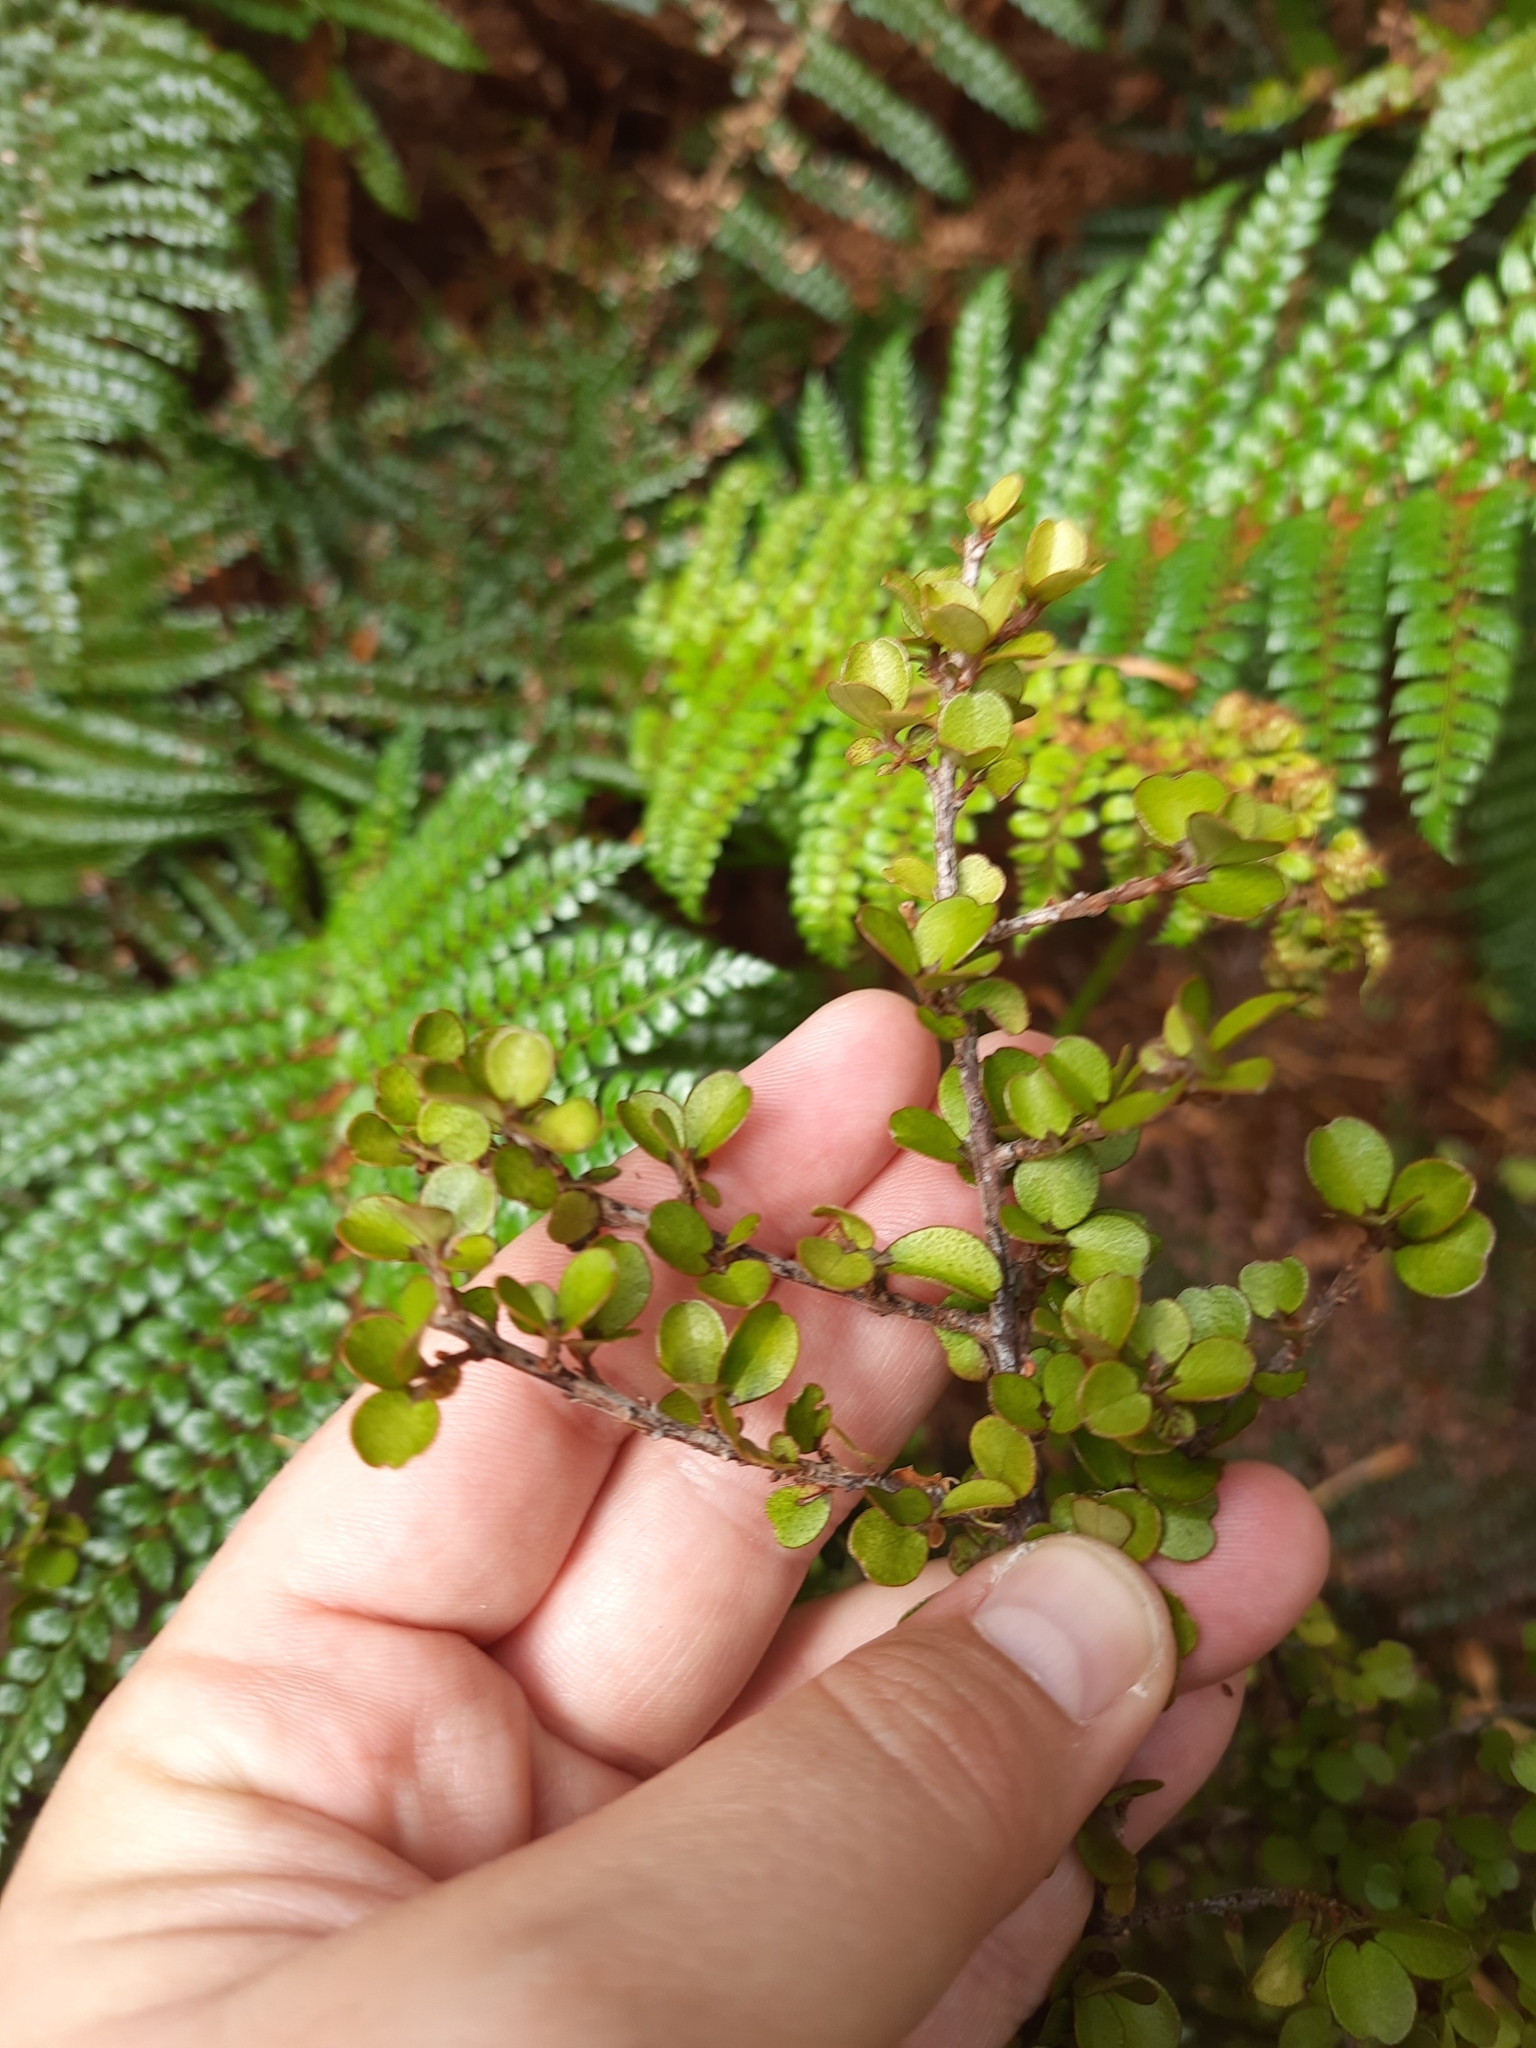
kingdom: Plantae
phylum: Tracheophyta
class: Magnoliopsida
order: Ericales
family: Primulaceae
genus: Myrsine
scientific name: Myrsine divaricata
